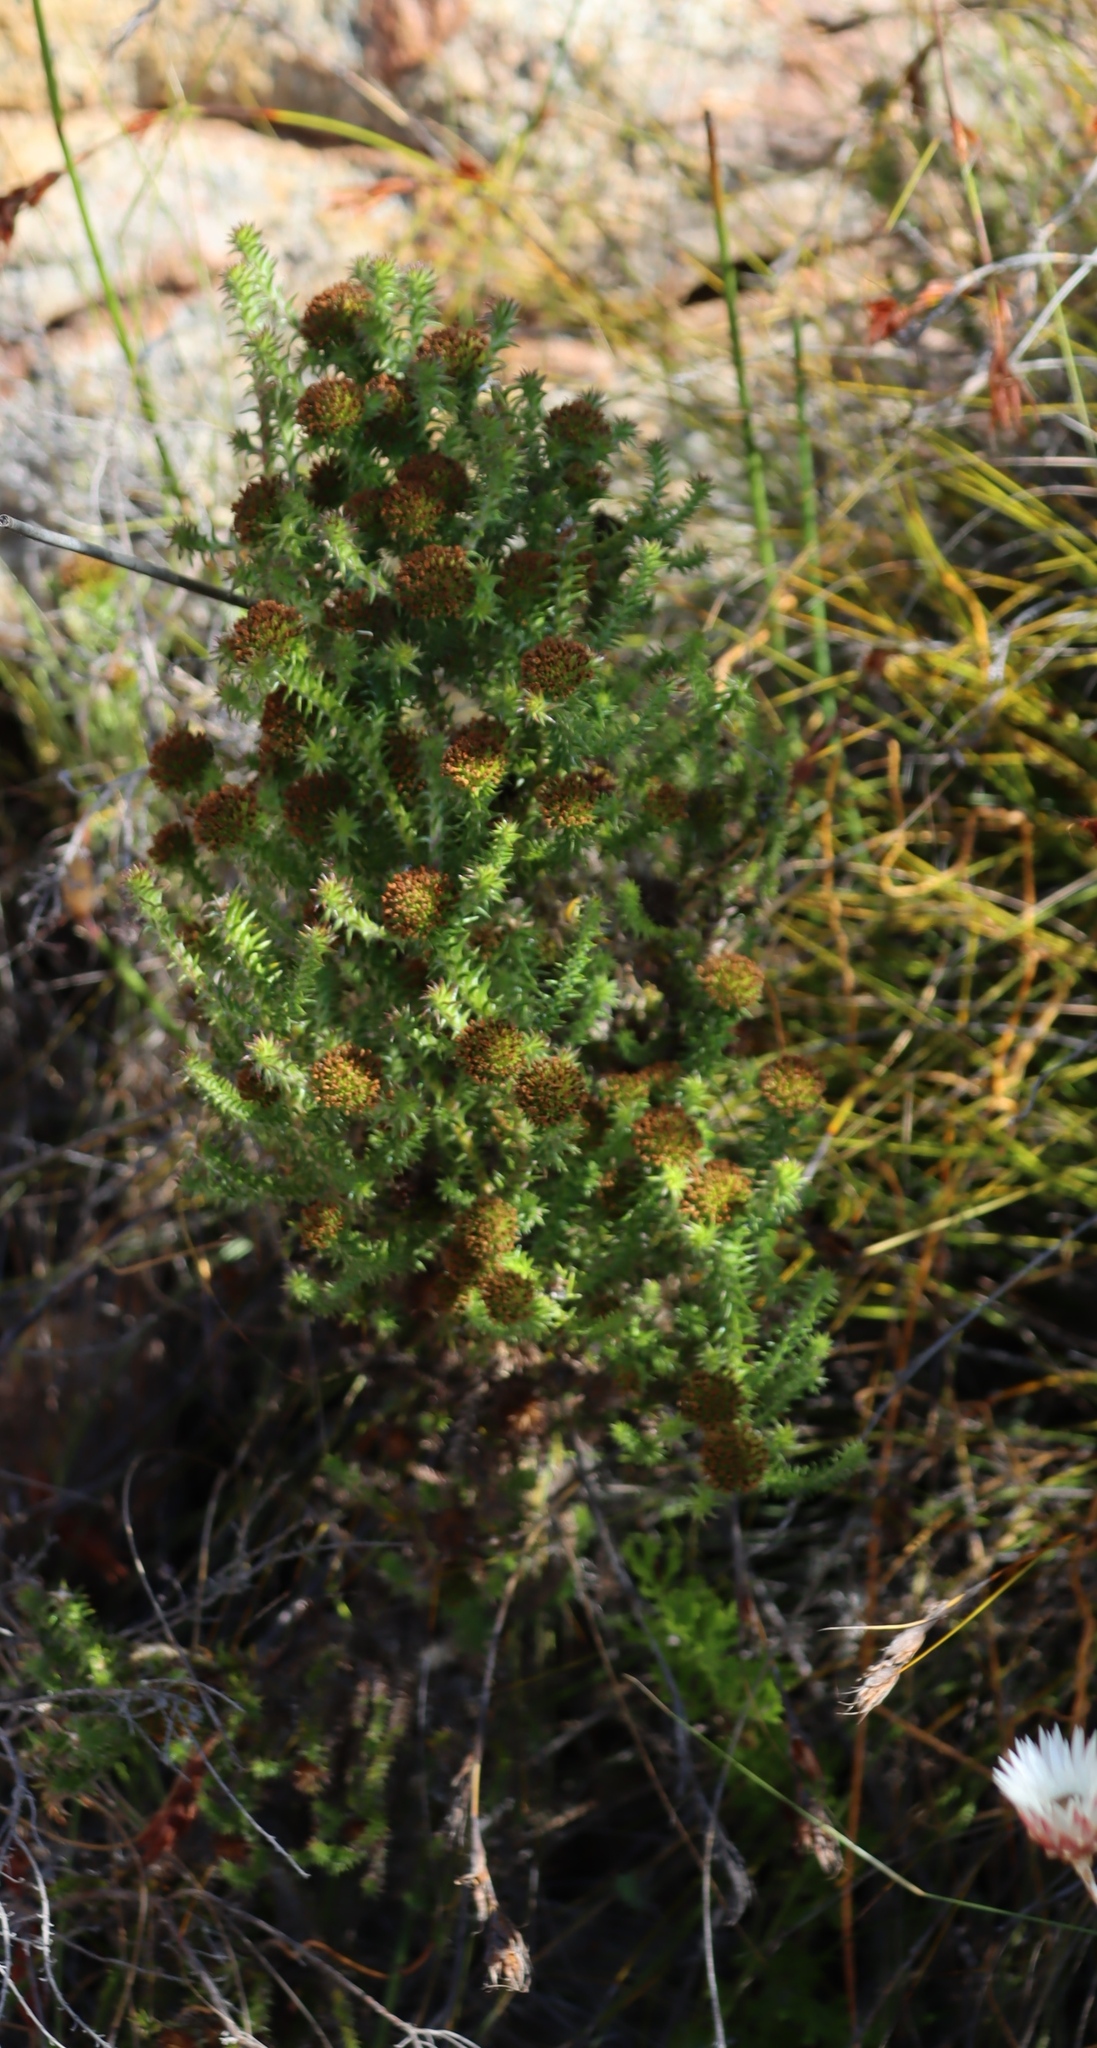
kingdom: Plantae
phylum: Tracheophyta
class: Magnoliopsida
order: Asterales
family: Asteraceae
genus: Stoebe
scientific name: Stoebe aethiopica
